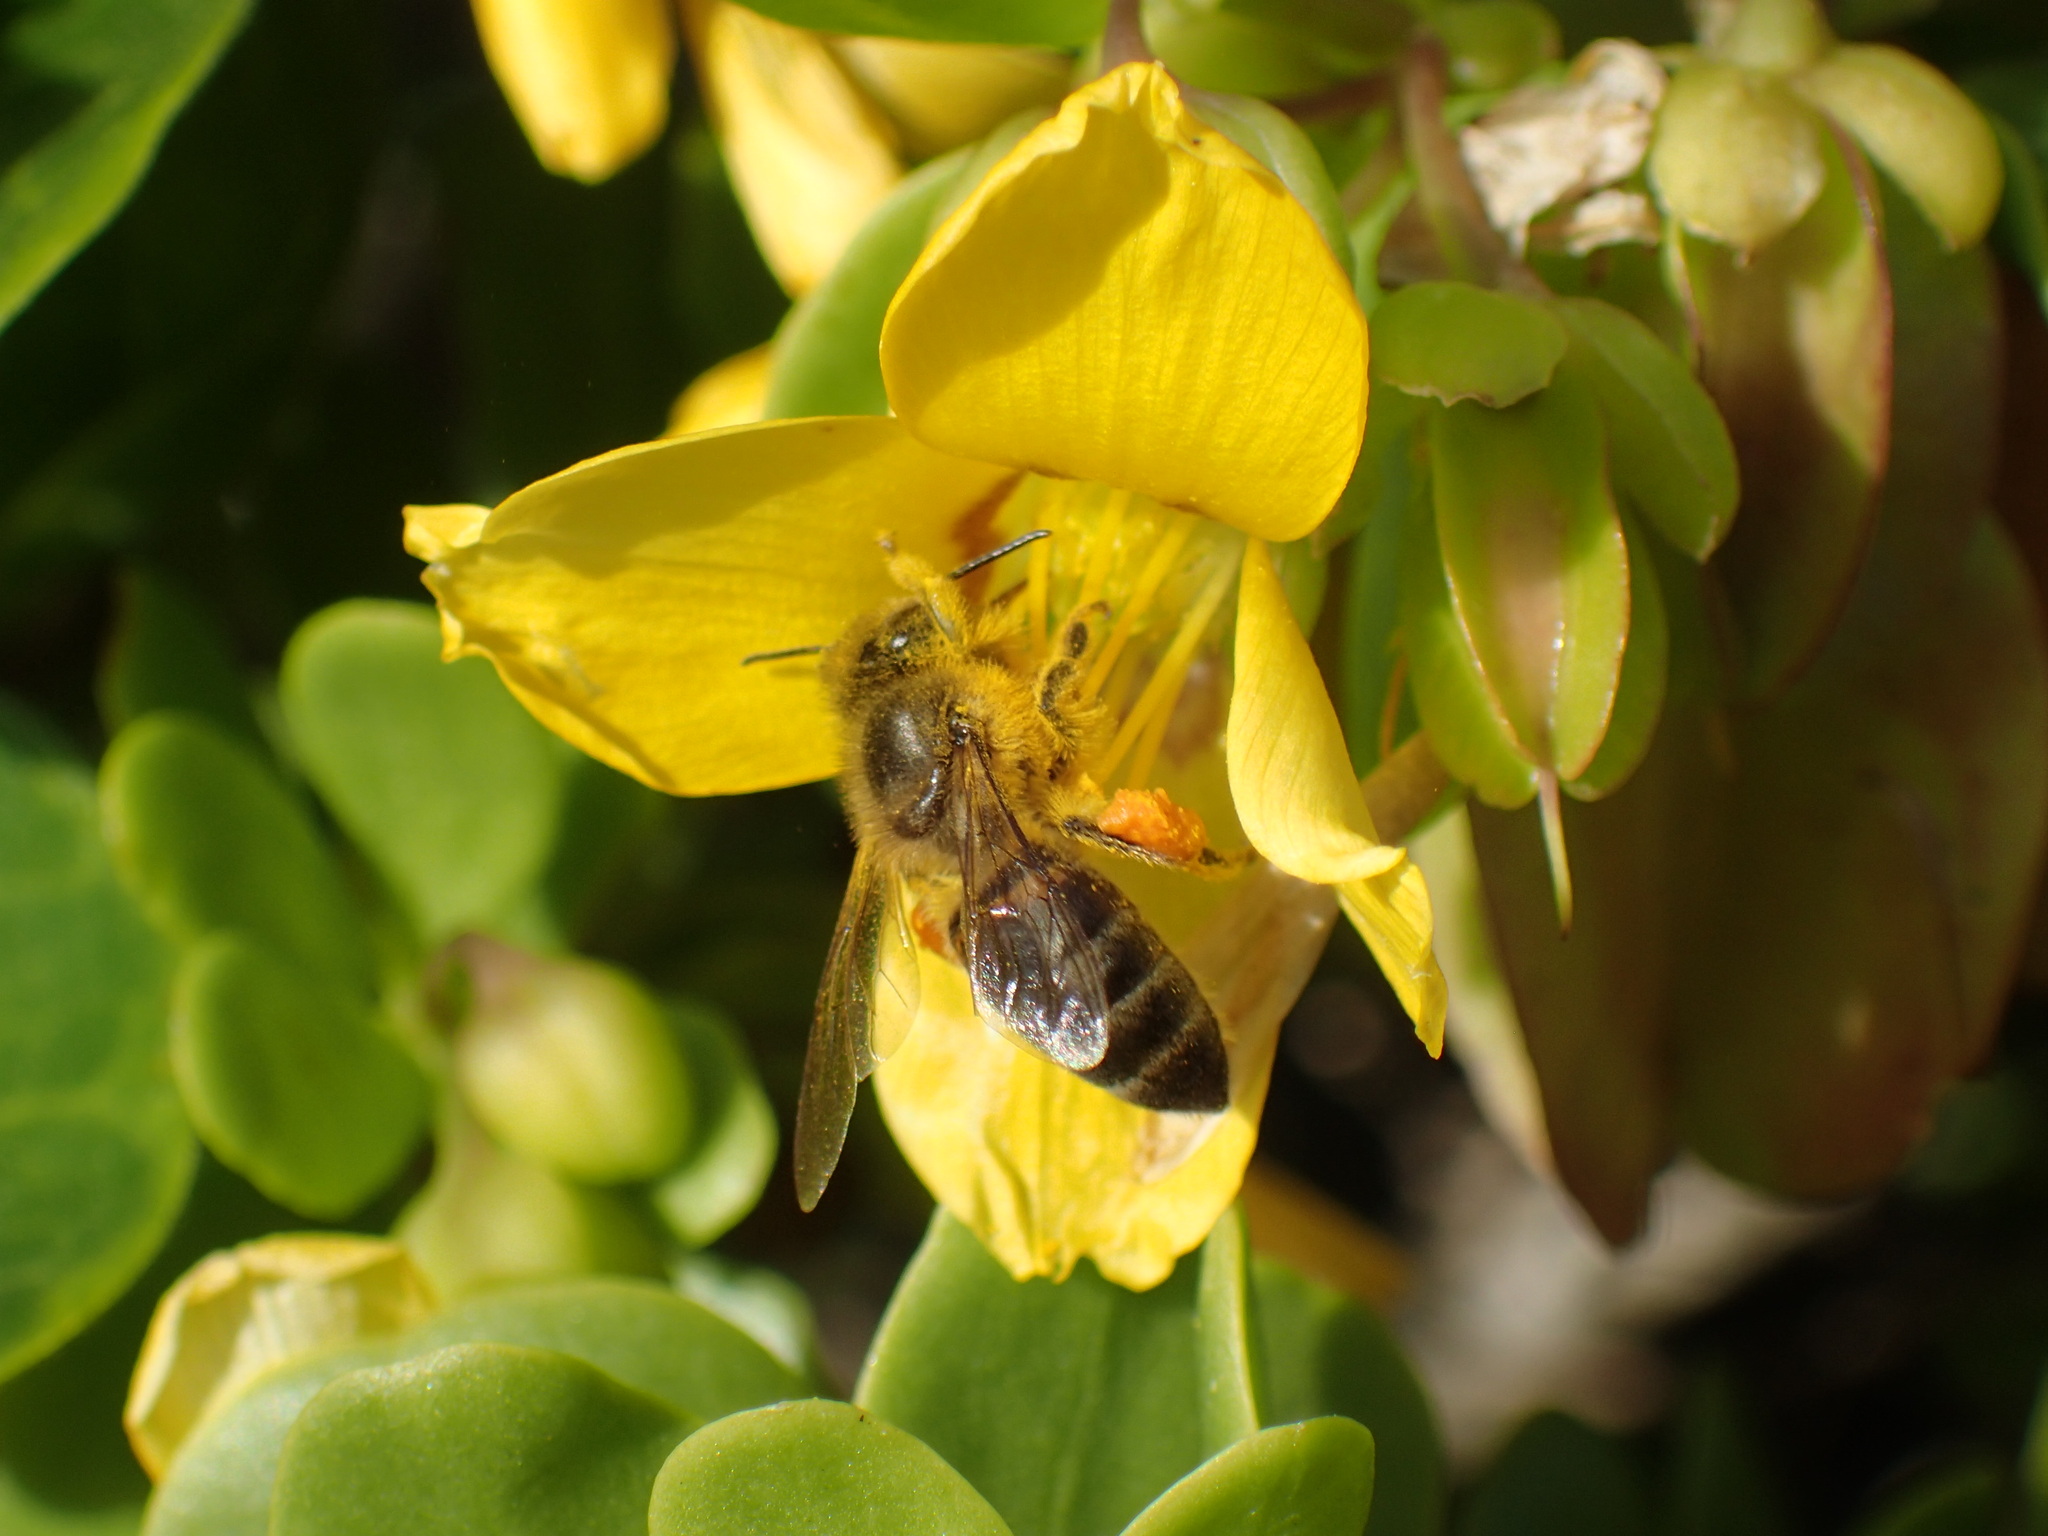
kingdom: Animalia
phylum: Arthropoda
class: Insecta
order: Hymenoptera
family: Apidae
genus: Apis
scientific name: Apis mellifera
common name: Honey bee
